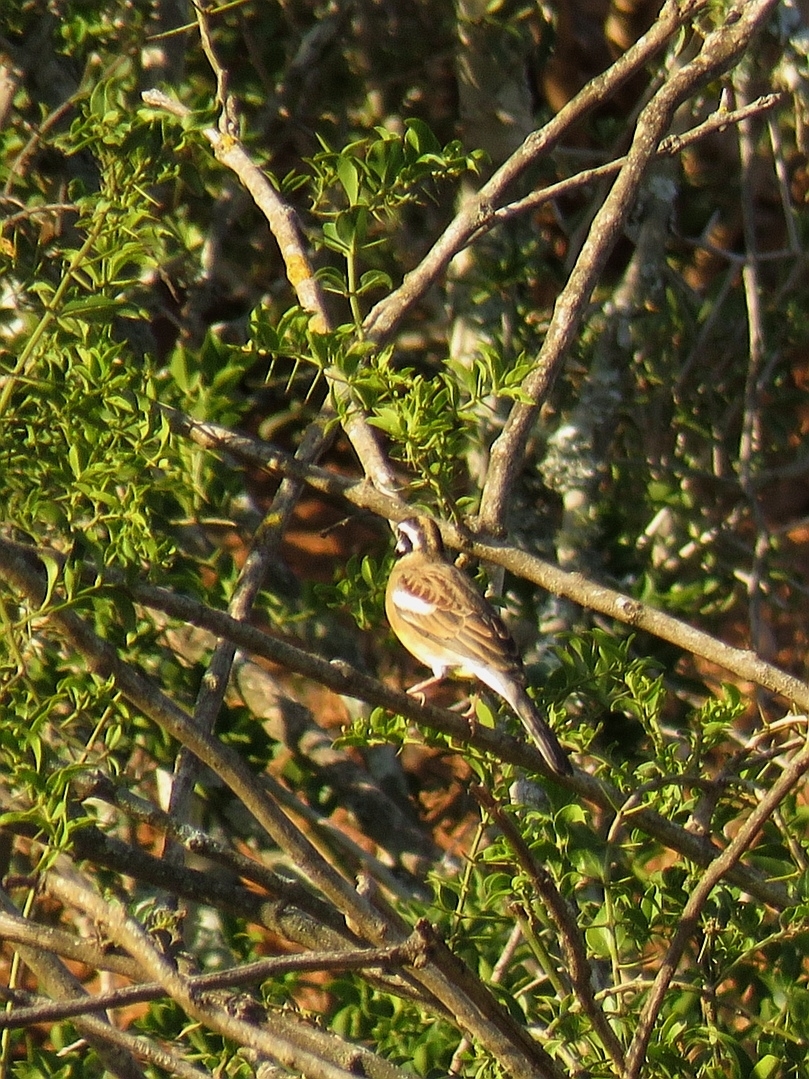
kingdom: Animalia
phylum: Chordata
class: Aves
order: Passeriformes
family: Emberizidae
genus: Emberiza
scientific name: Emberiza flaviventris
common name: Golden-breasted bunting
